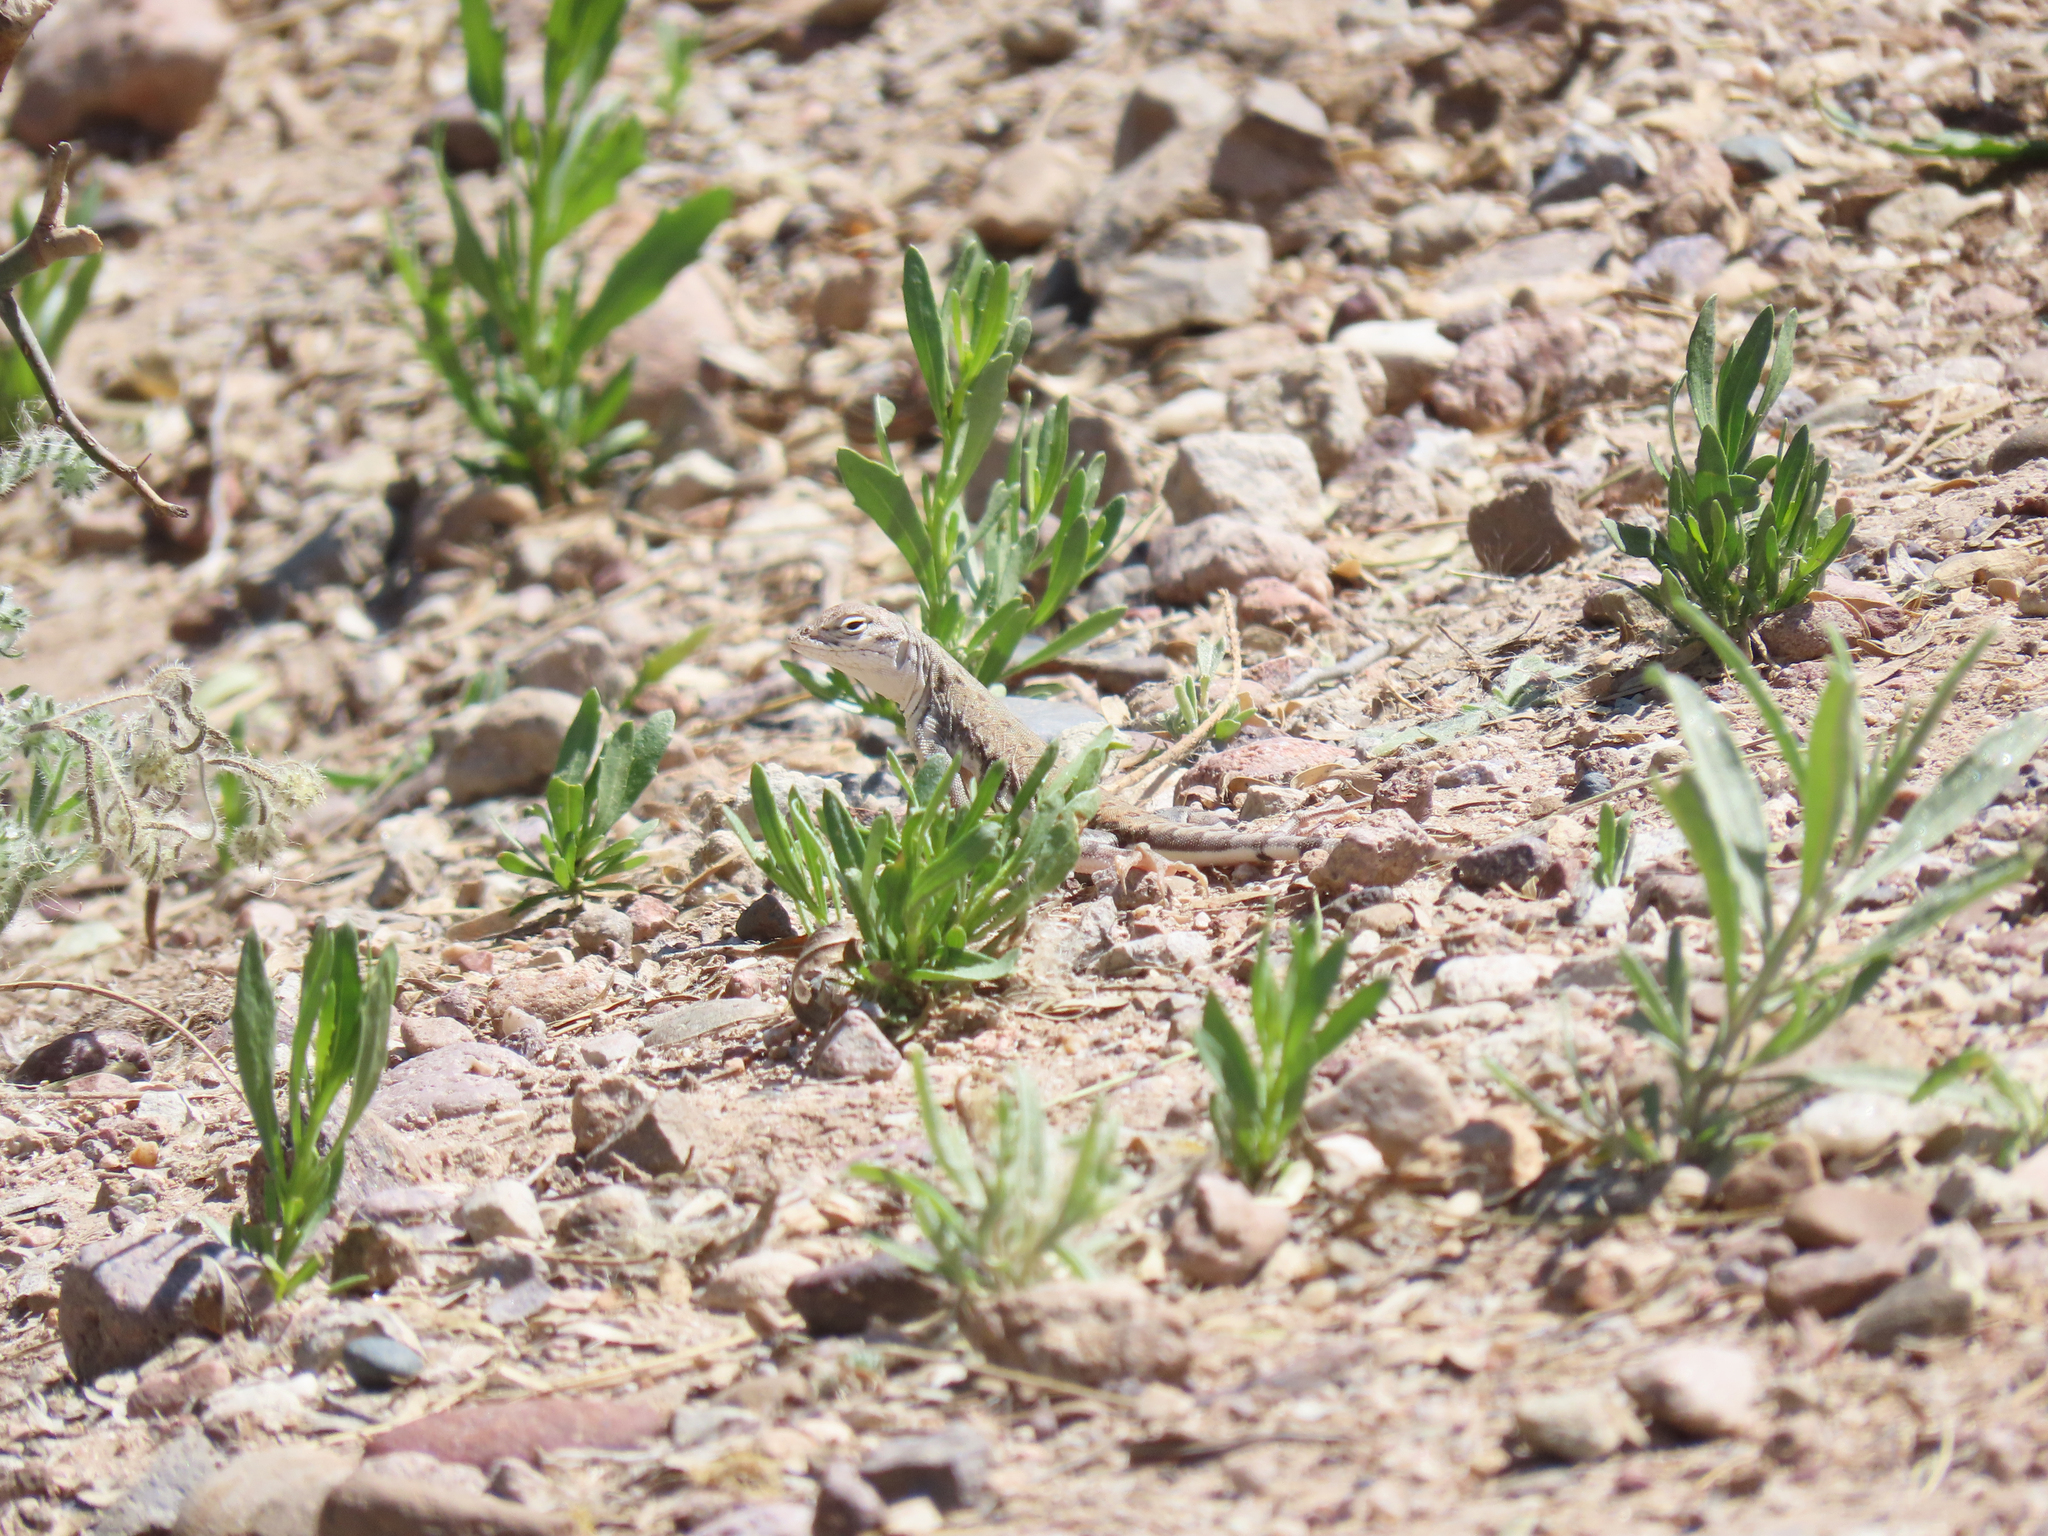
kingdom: Animalia
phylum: Chordata
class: Squamata
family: Phrynosomatidae
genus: Callisaurus
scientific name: Callisaurus draconoides
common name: Zebra-tailed lizard
